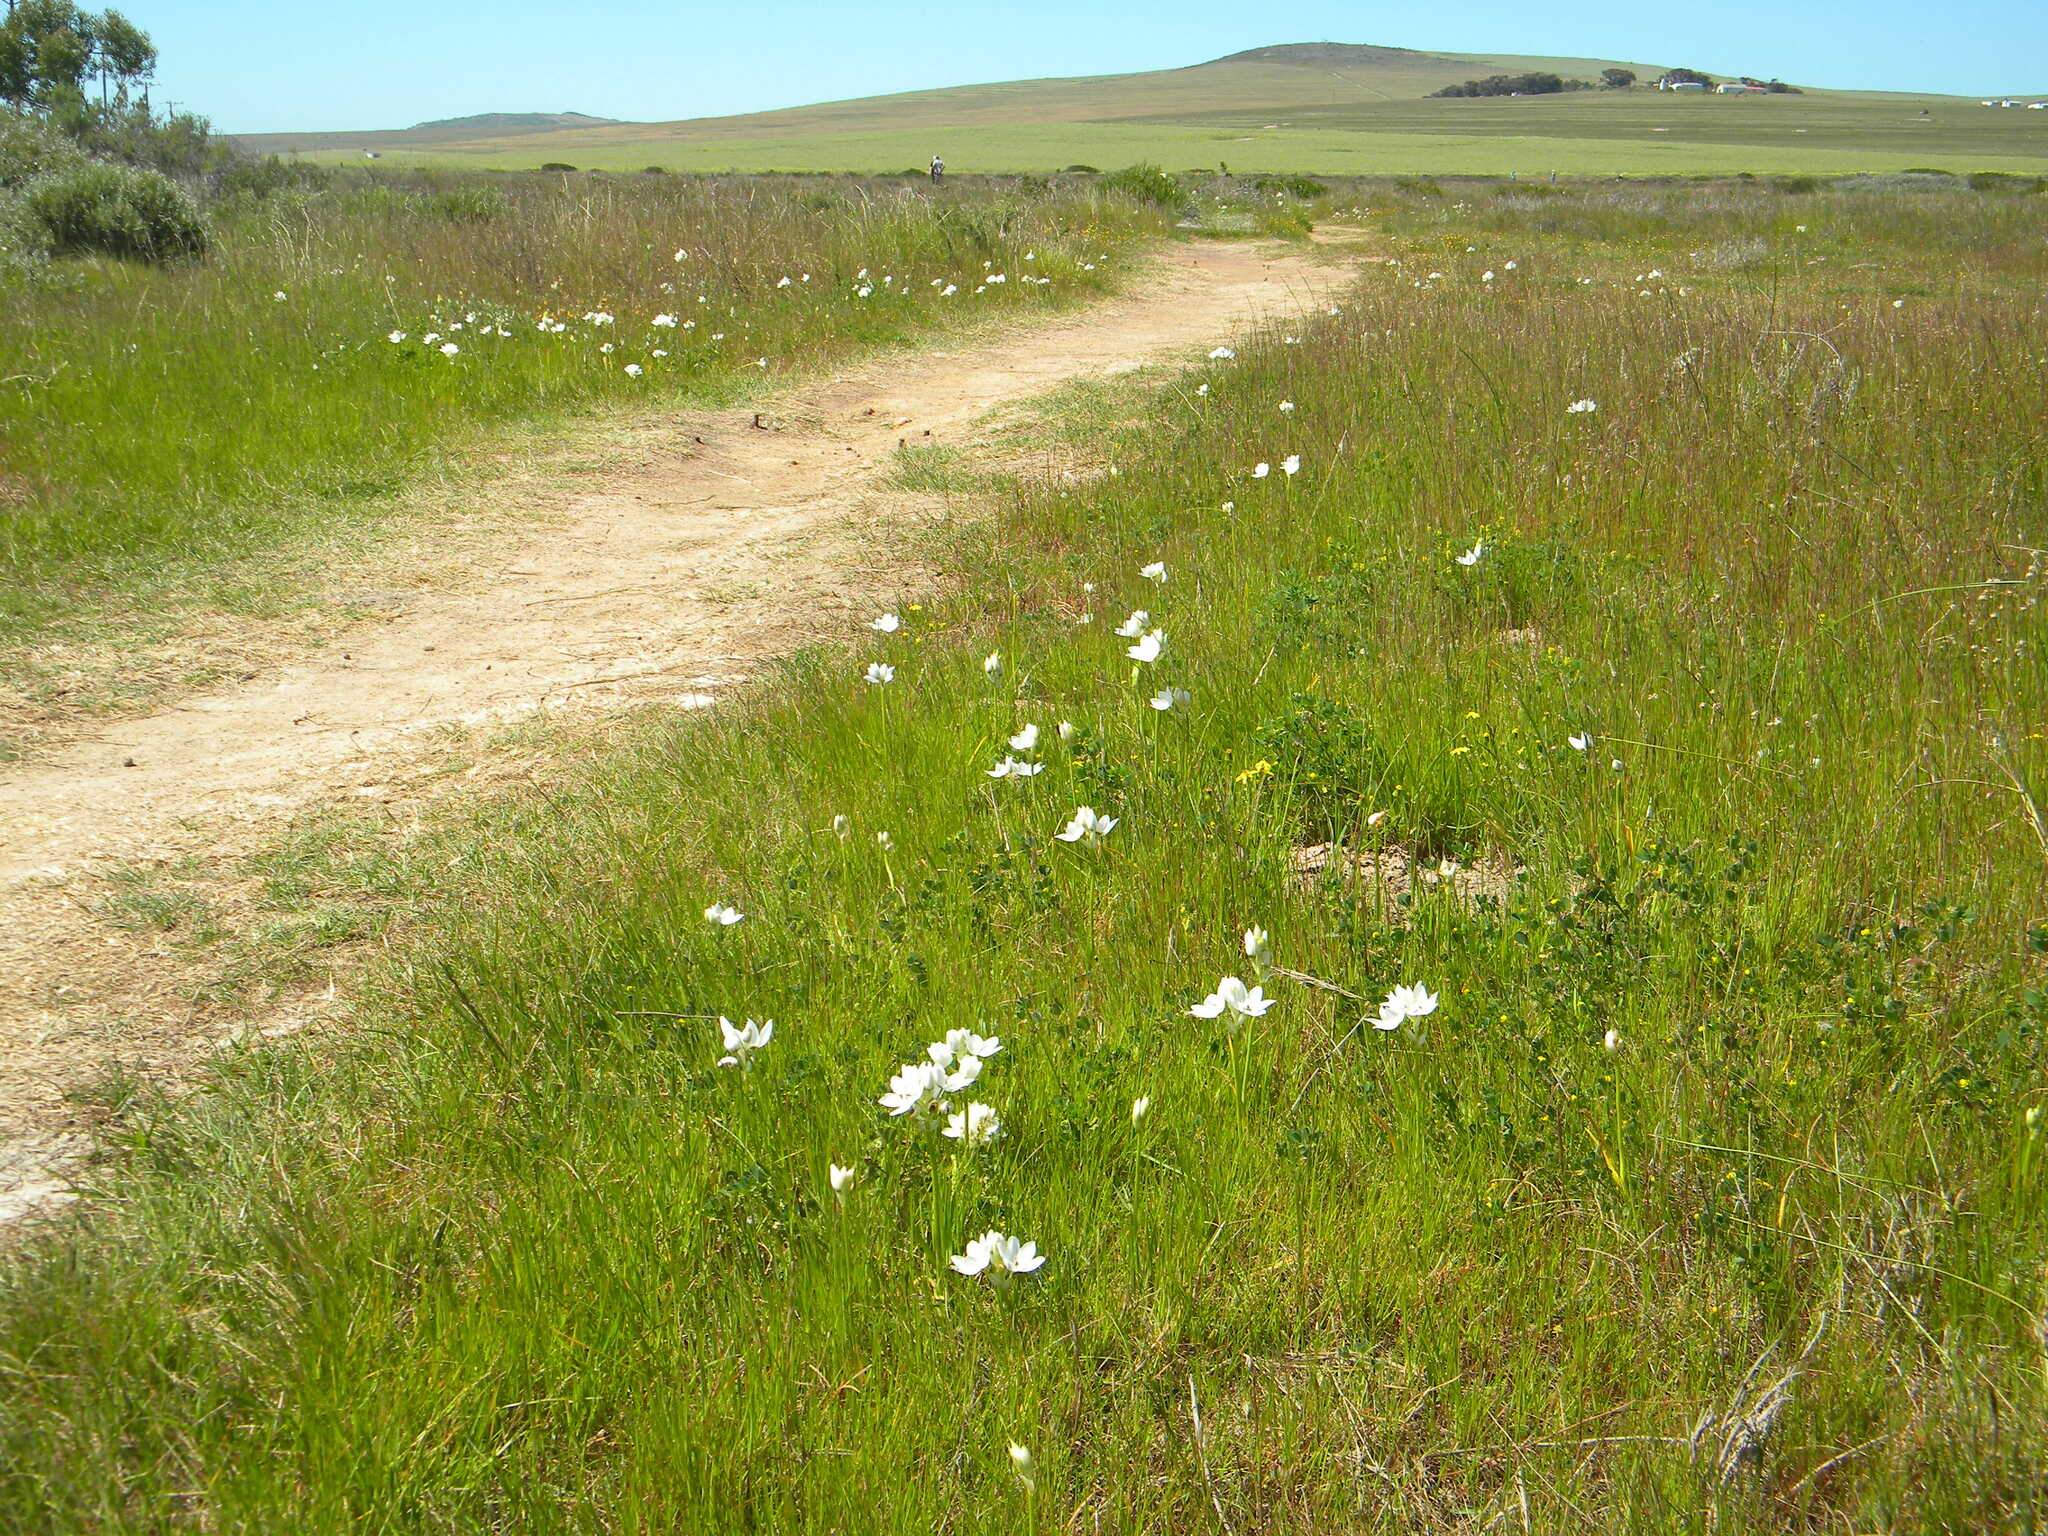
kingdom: Plantae
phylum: Tracheophyta
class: Liliopsida
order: Asparagales
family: Asparagaceae
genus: Ornithogalum
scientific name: Ornithogalum thyrsoides
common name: Chincherinchee
